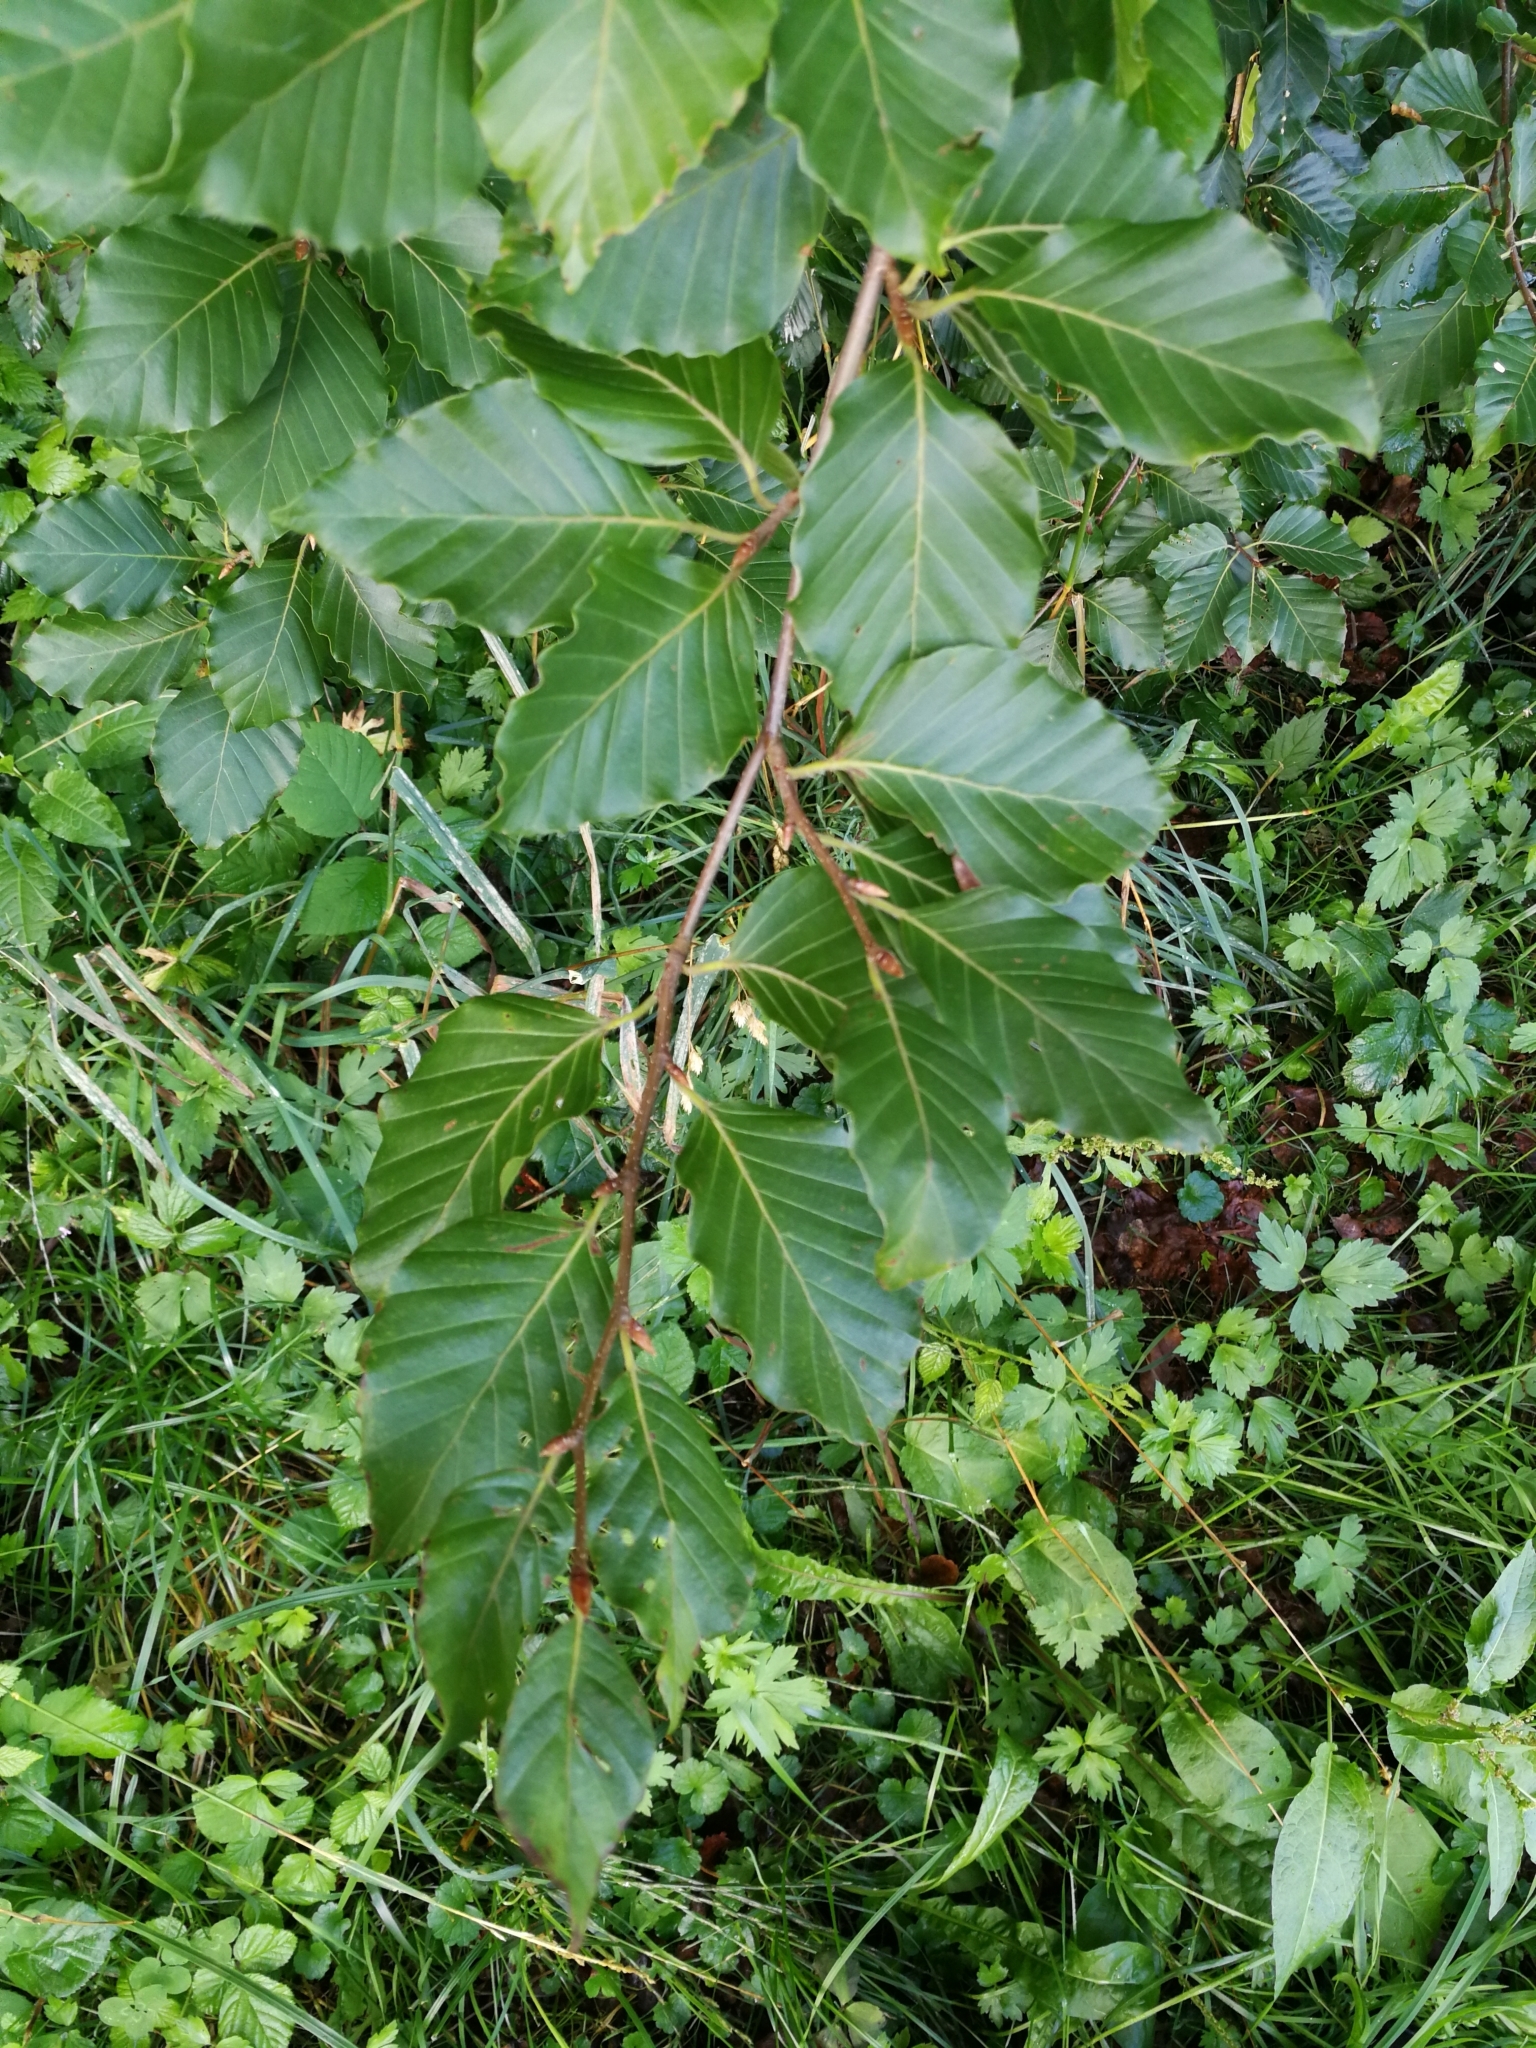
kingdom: Plantae
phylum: Tracheophyta
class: Magnoliopsida
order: Fagales
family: Fagaceae
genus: Fagus
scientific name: Fagus sylvatica
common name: Beech
